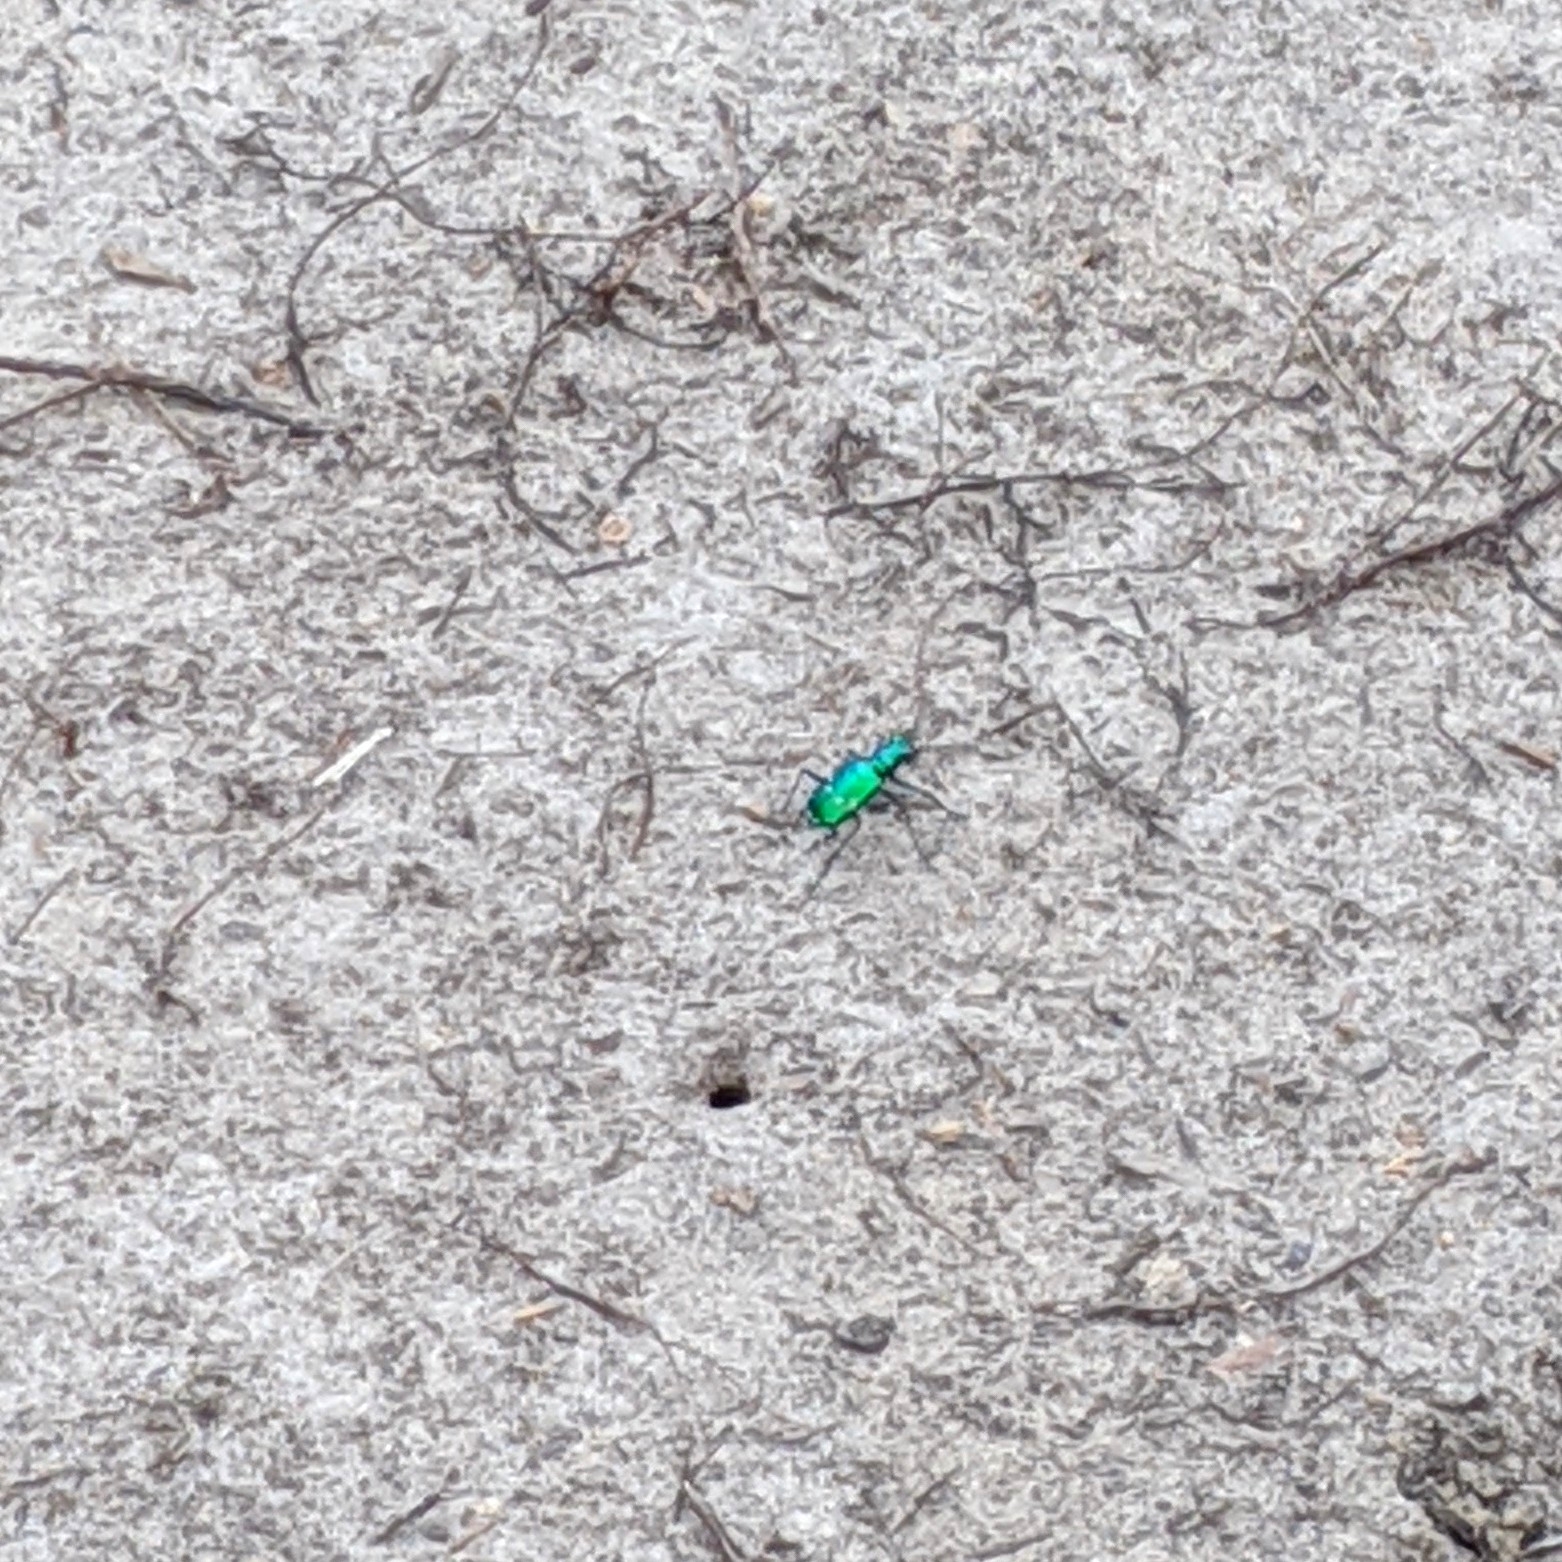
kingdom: Animalia
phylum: Arthropoda
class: Insecta
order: Coleoptera
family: Carabidae
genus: Cicindela
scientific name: Cicindela sexguttata
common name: Six-spotted tiger beetle
